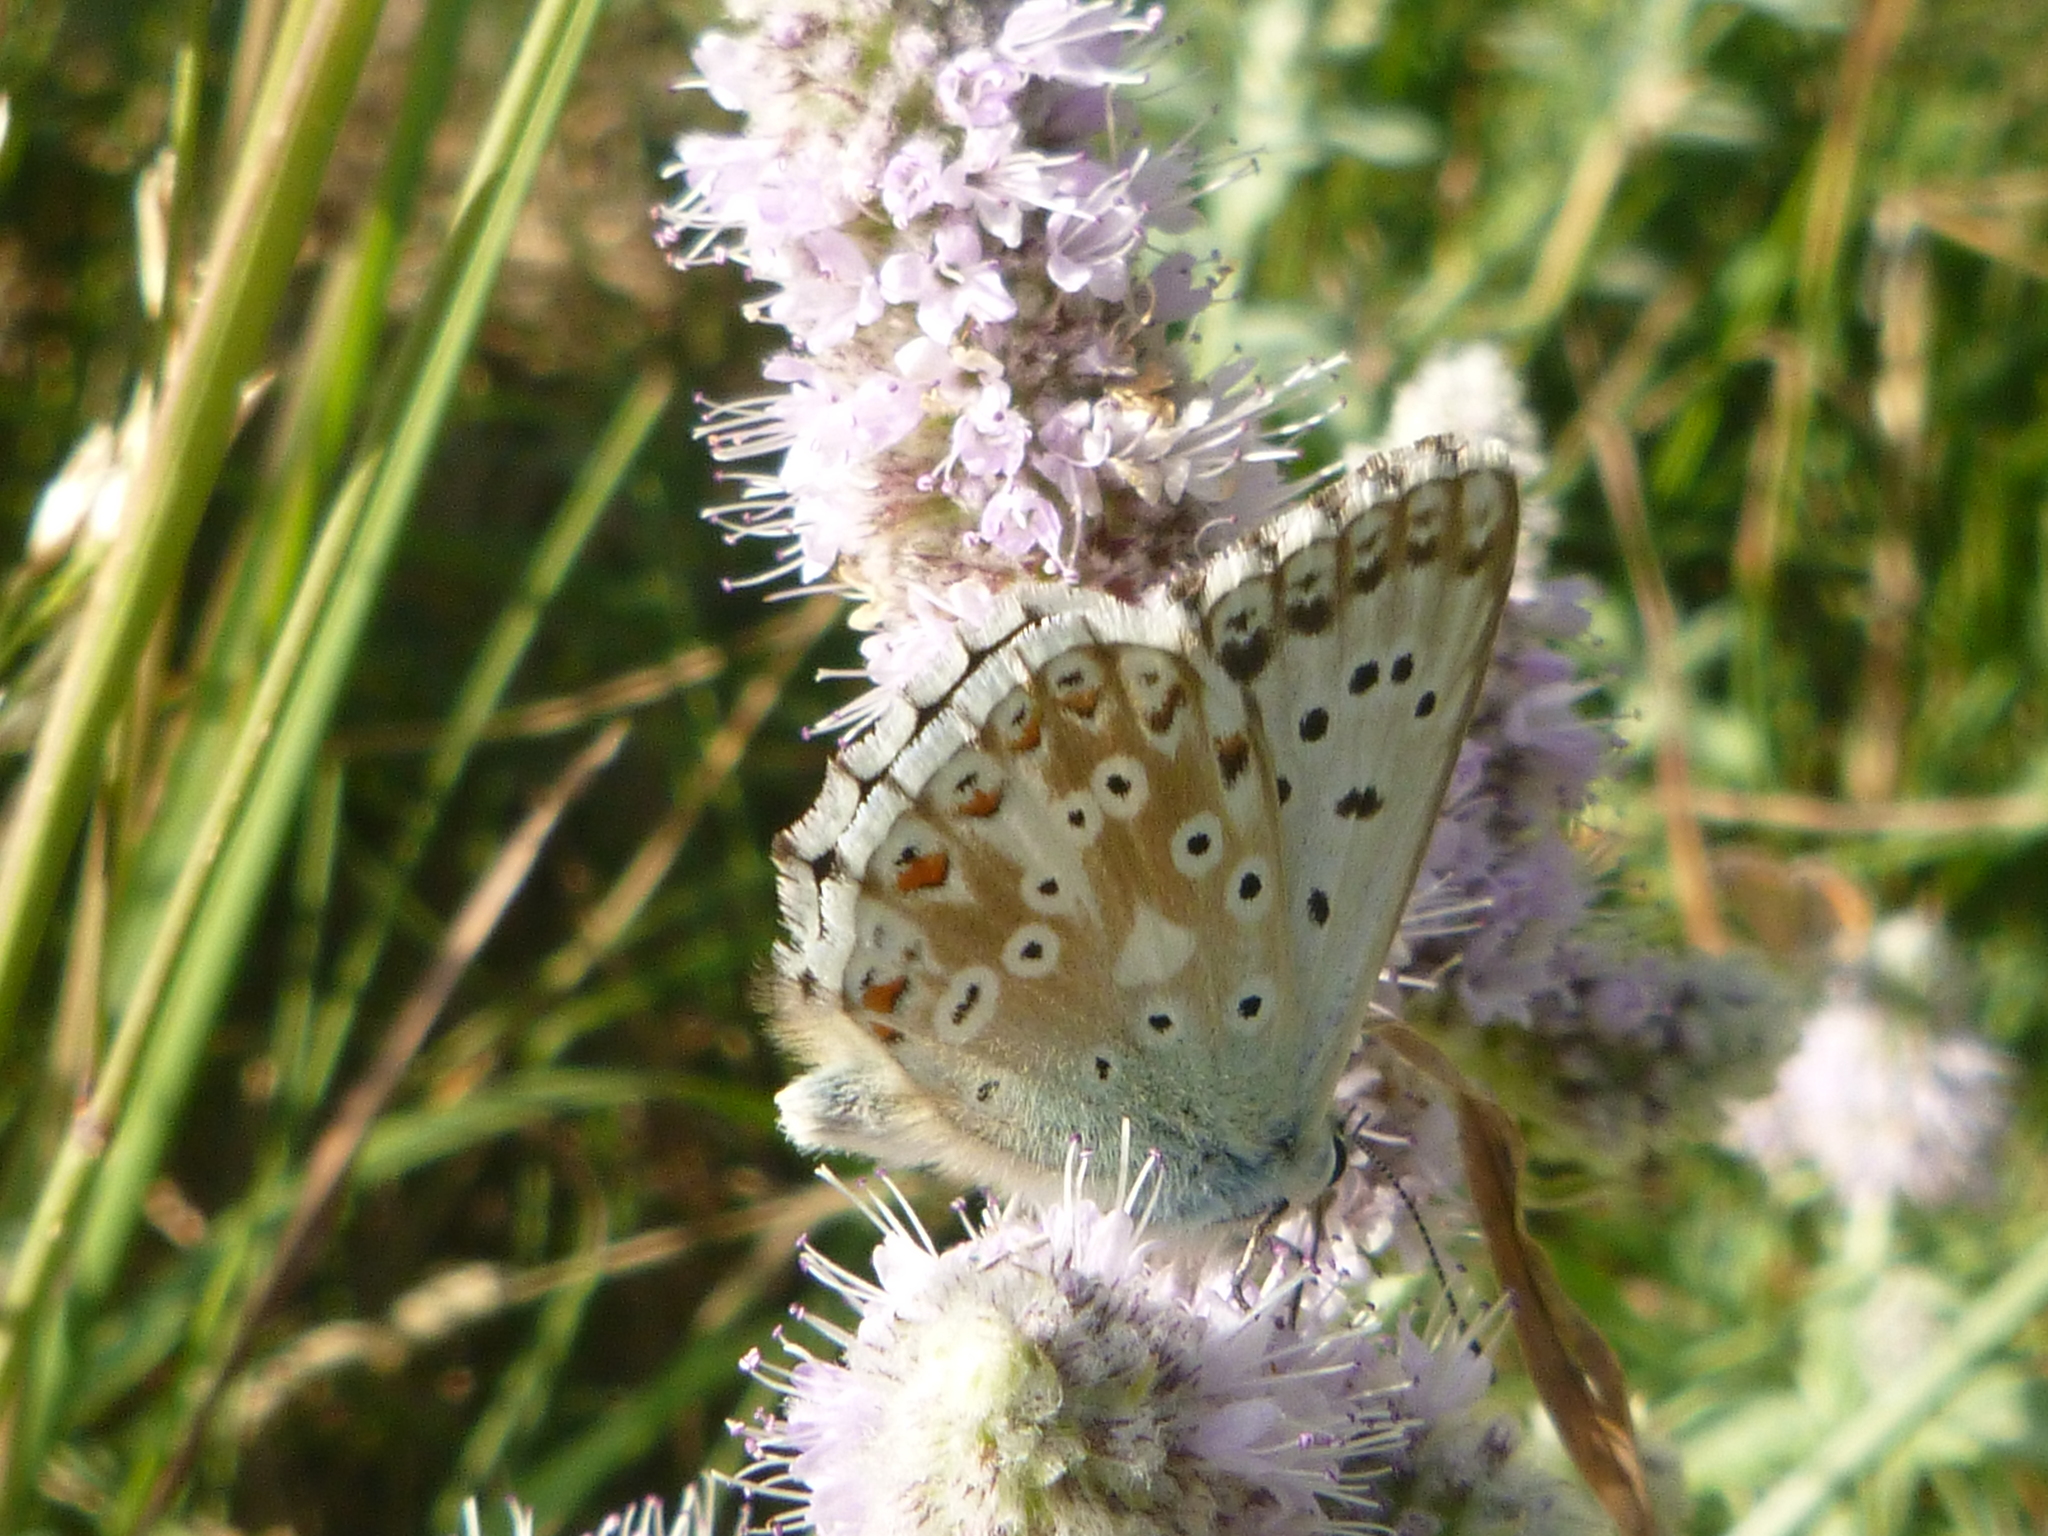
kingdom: Animalia
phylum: Arthropoda
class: Insecta
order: Lepidoptera
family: Lycaenidae
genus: Lysandra
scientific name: Lysandra coridon
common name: Chalkhill blue
